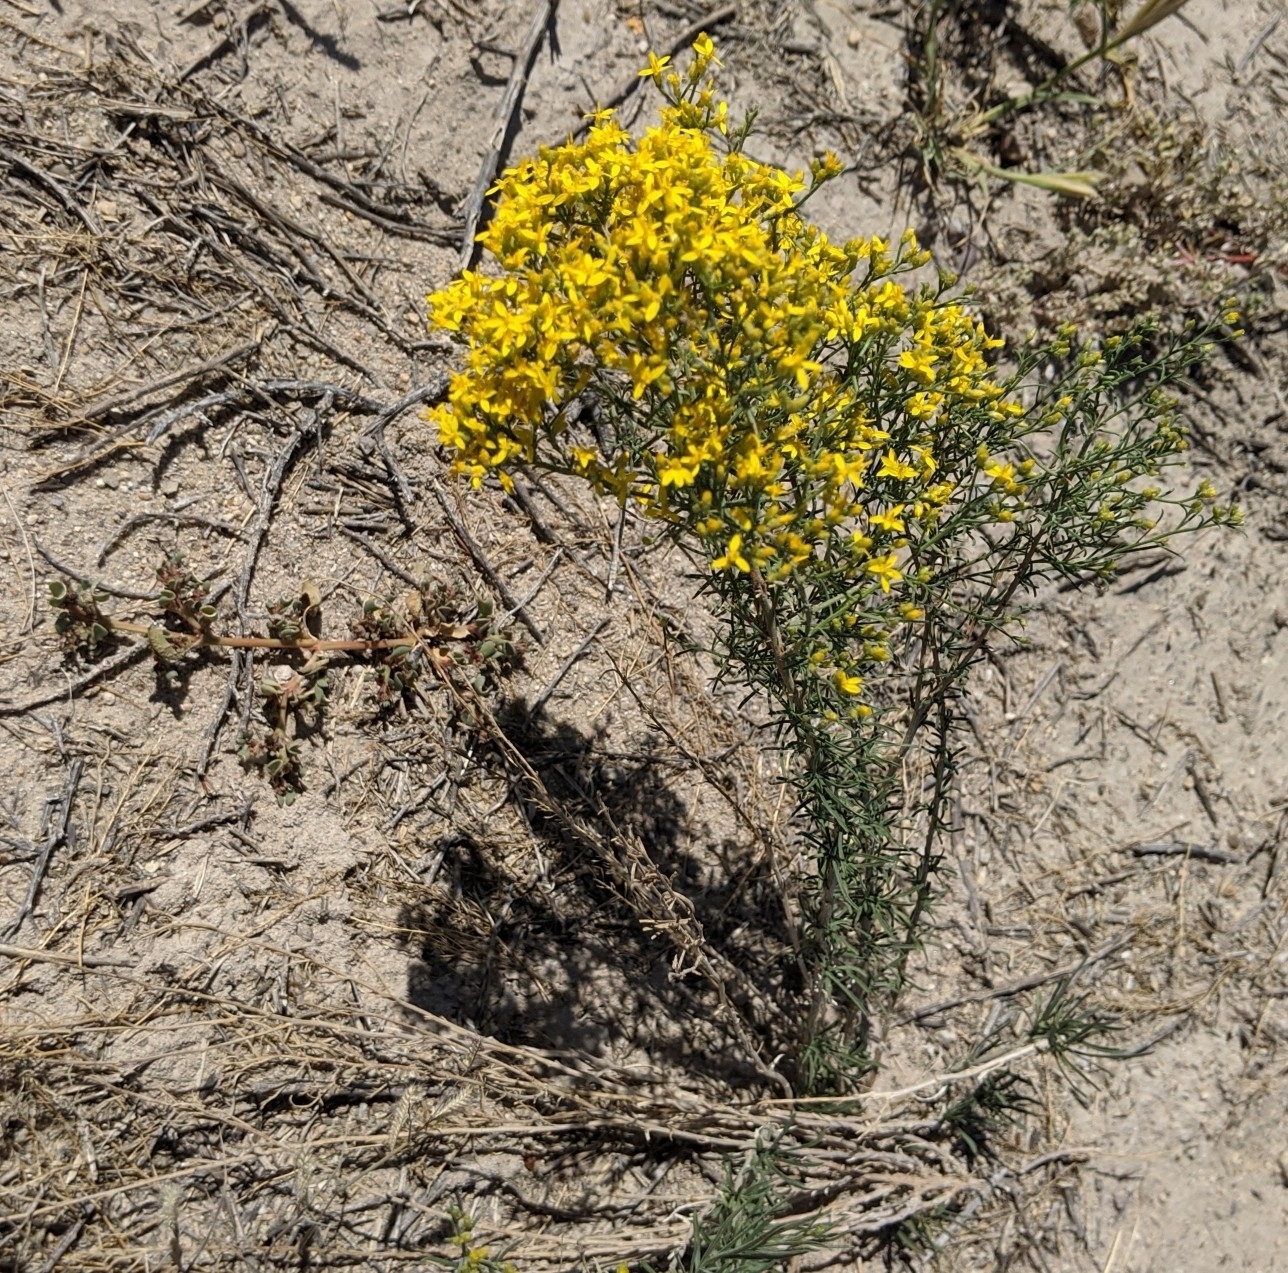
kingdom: Plantae
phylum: Tracheophyta
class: Magnoliopsida
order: Asterales
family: Asteraceae
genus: Gutierrezia
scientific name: Gutierrezia sarothrae
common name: Broom snakeweed
